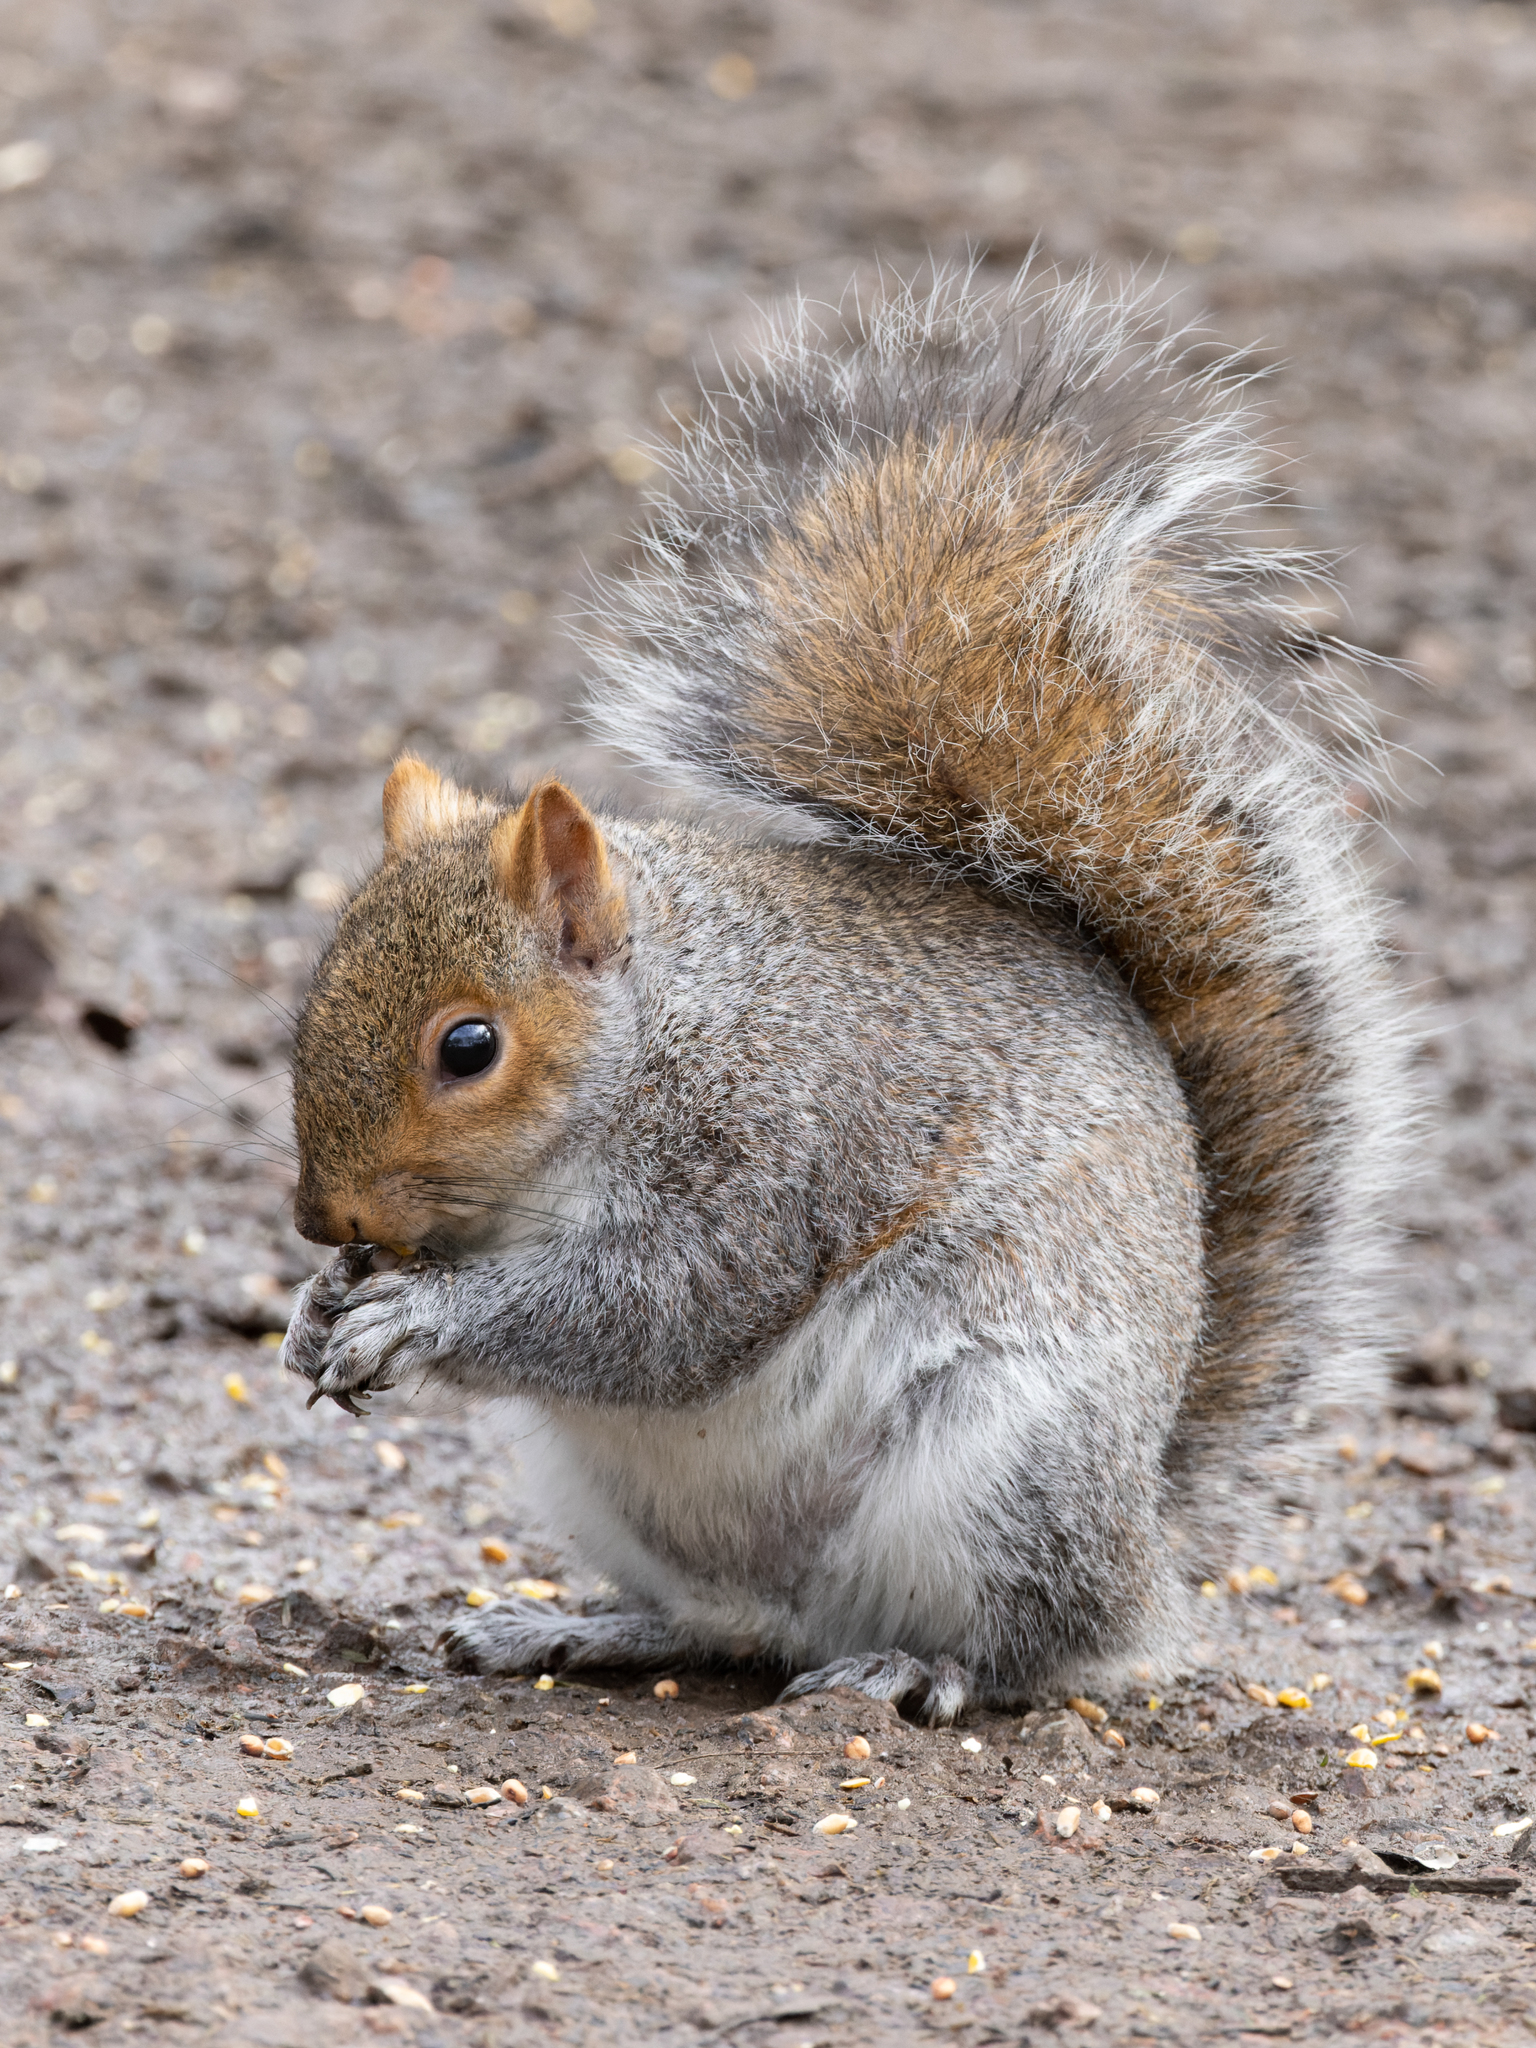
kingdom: Animalia
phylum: Chordata
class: Mammalia
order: Rodentia
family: Sciuridae
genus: Sciurus
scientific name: Sciurus carolinensis
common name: Eastern gray squirrel
